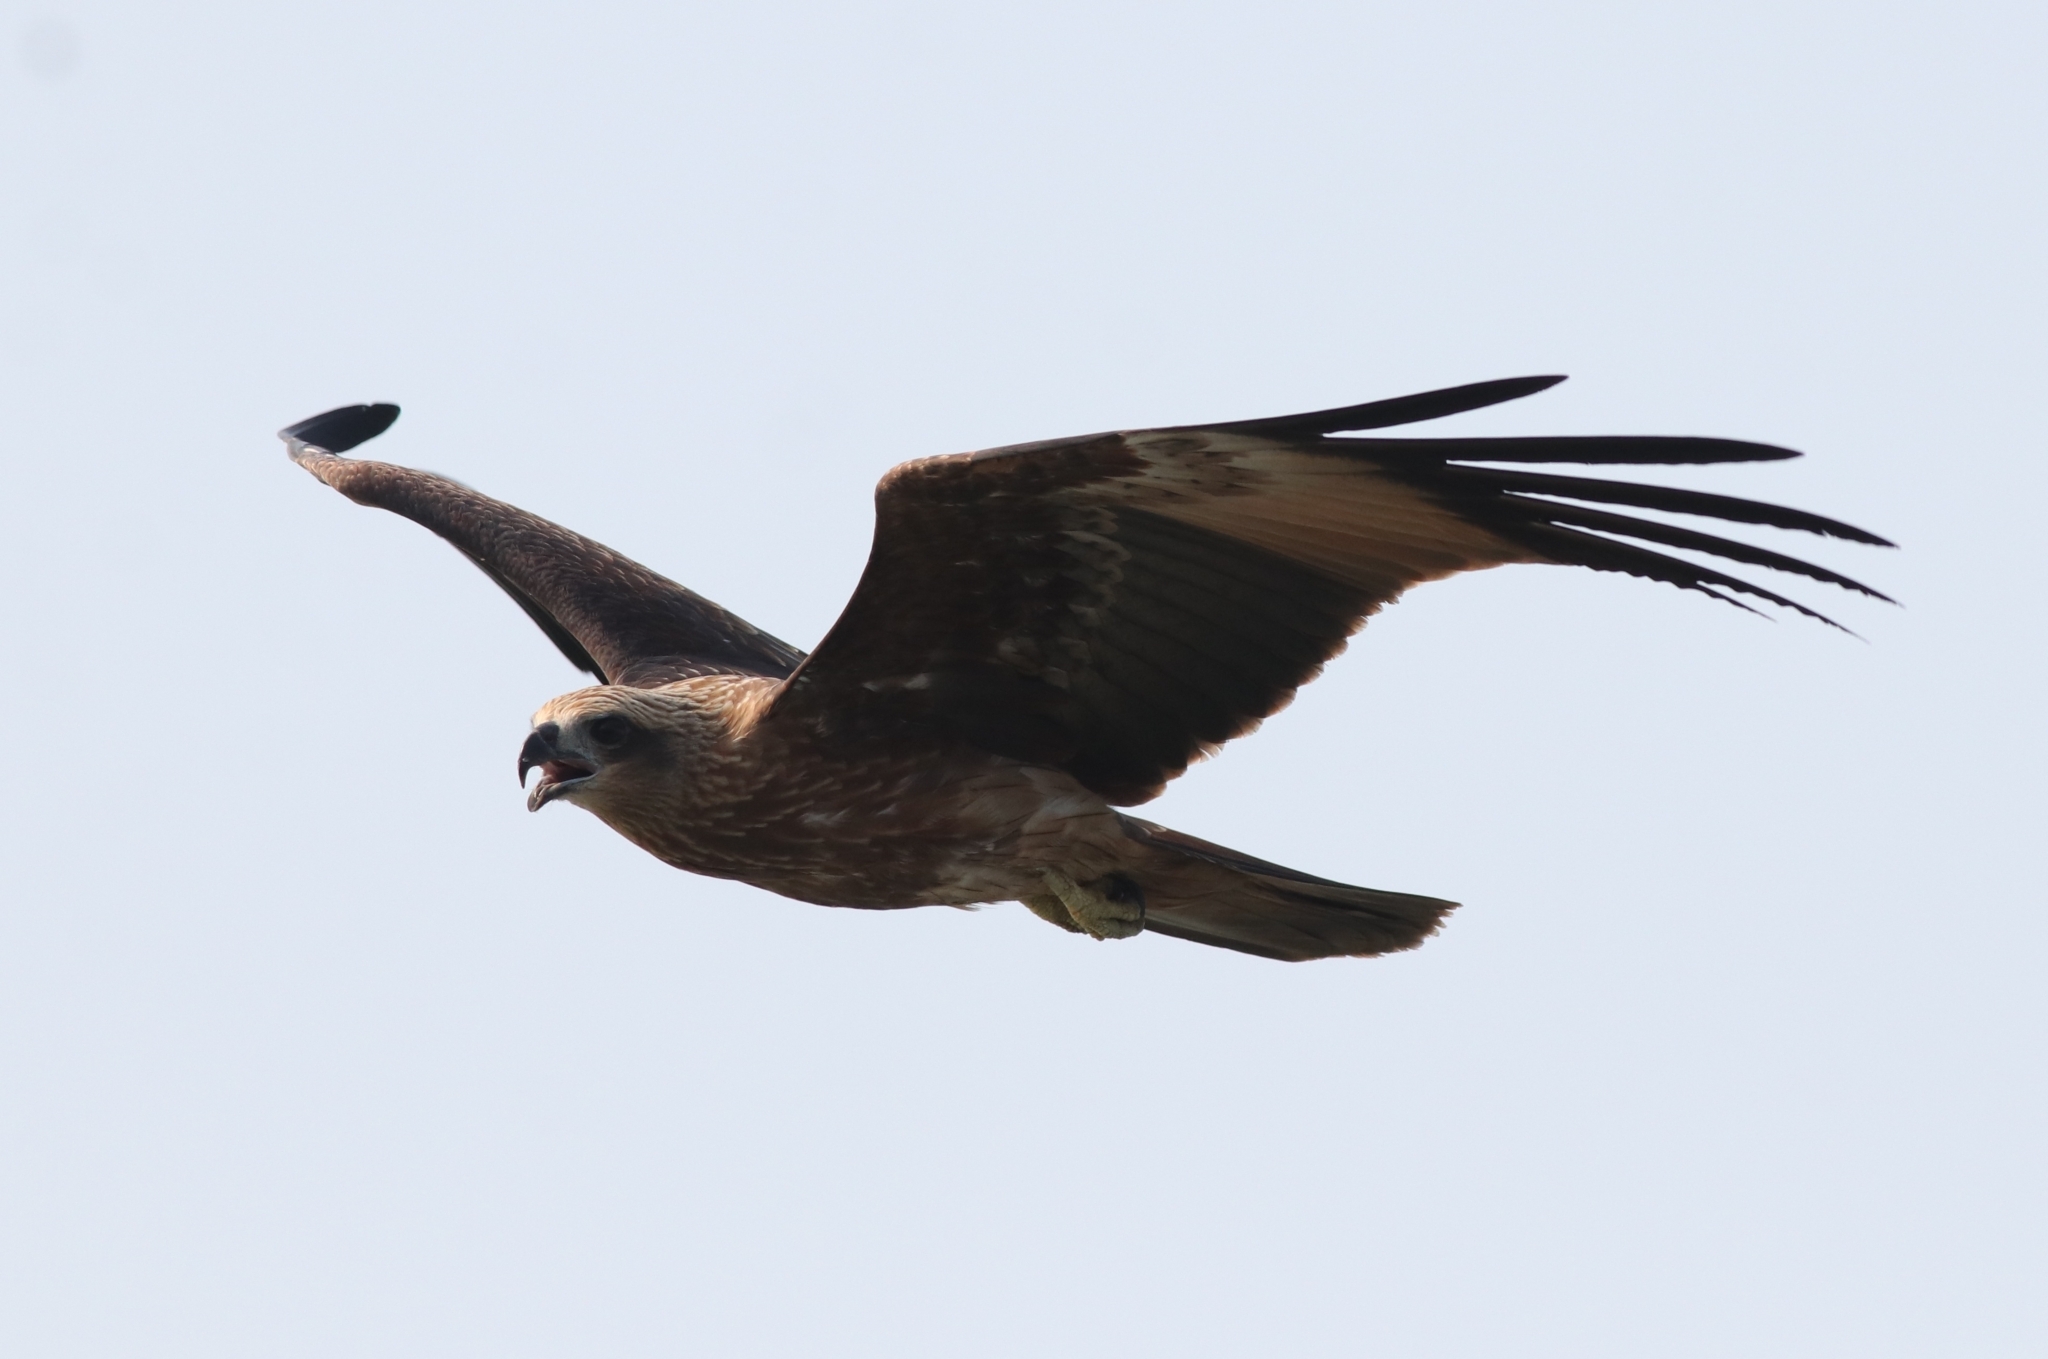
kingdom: Animalia
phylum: Chordata
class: Aves
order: Accipitriformes
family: Accipitridae
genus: Haliastur
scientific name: Haliastur indus
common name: Brahminy kite
